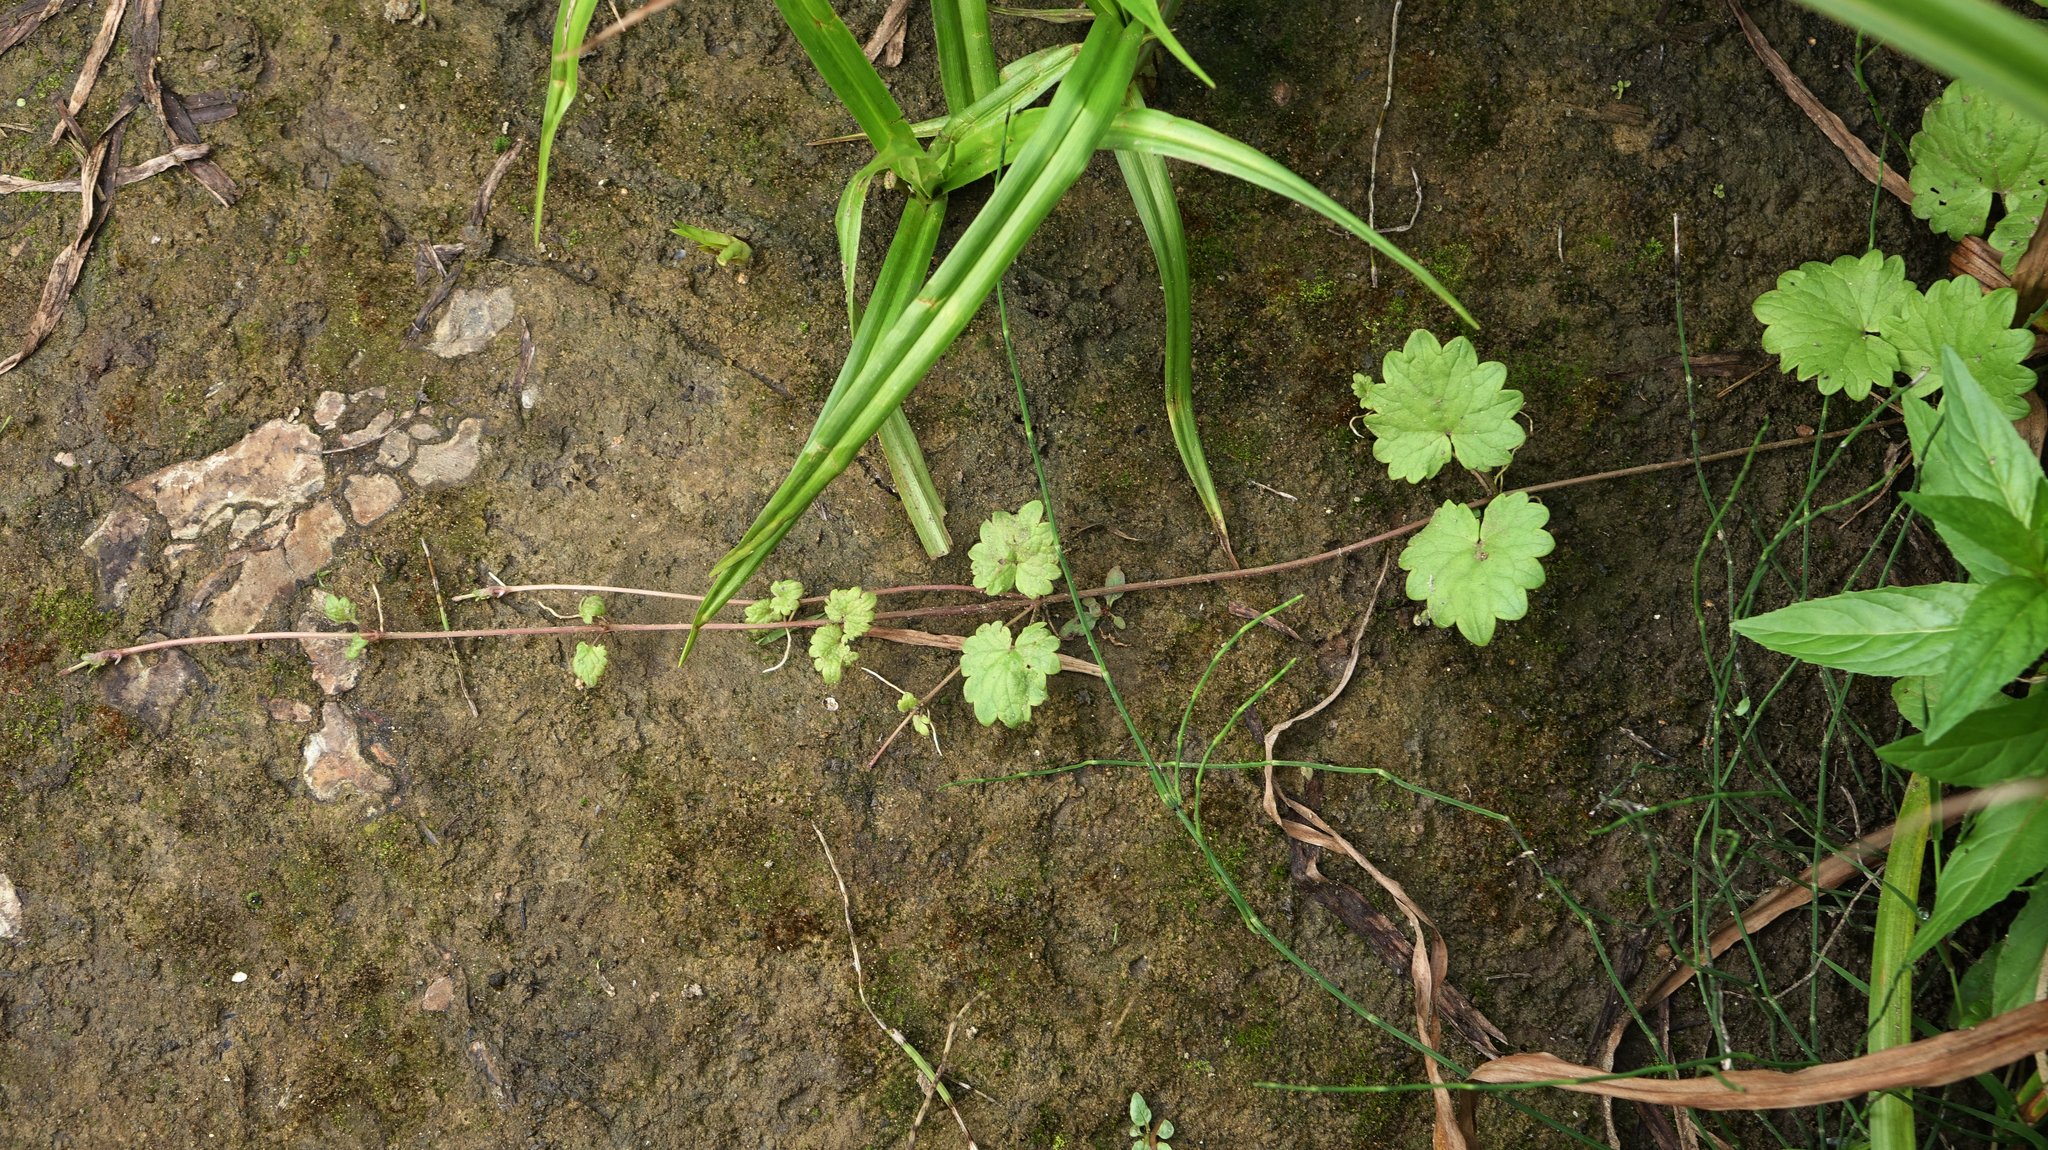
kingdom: Plantae
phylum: Tracheophyta
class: Magnoliopsida
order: Lamiales
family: Lamiaceae
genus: Glechoma
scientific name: Glechoma hederacea
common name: Ground ivy
